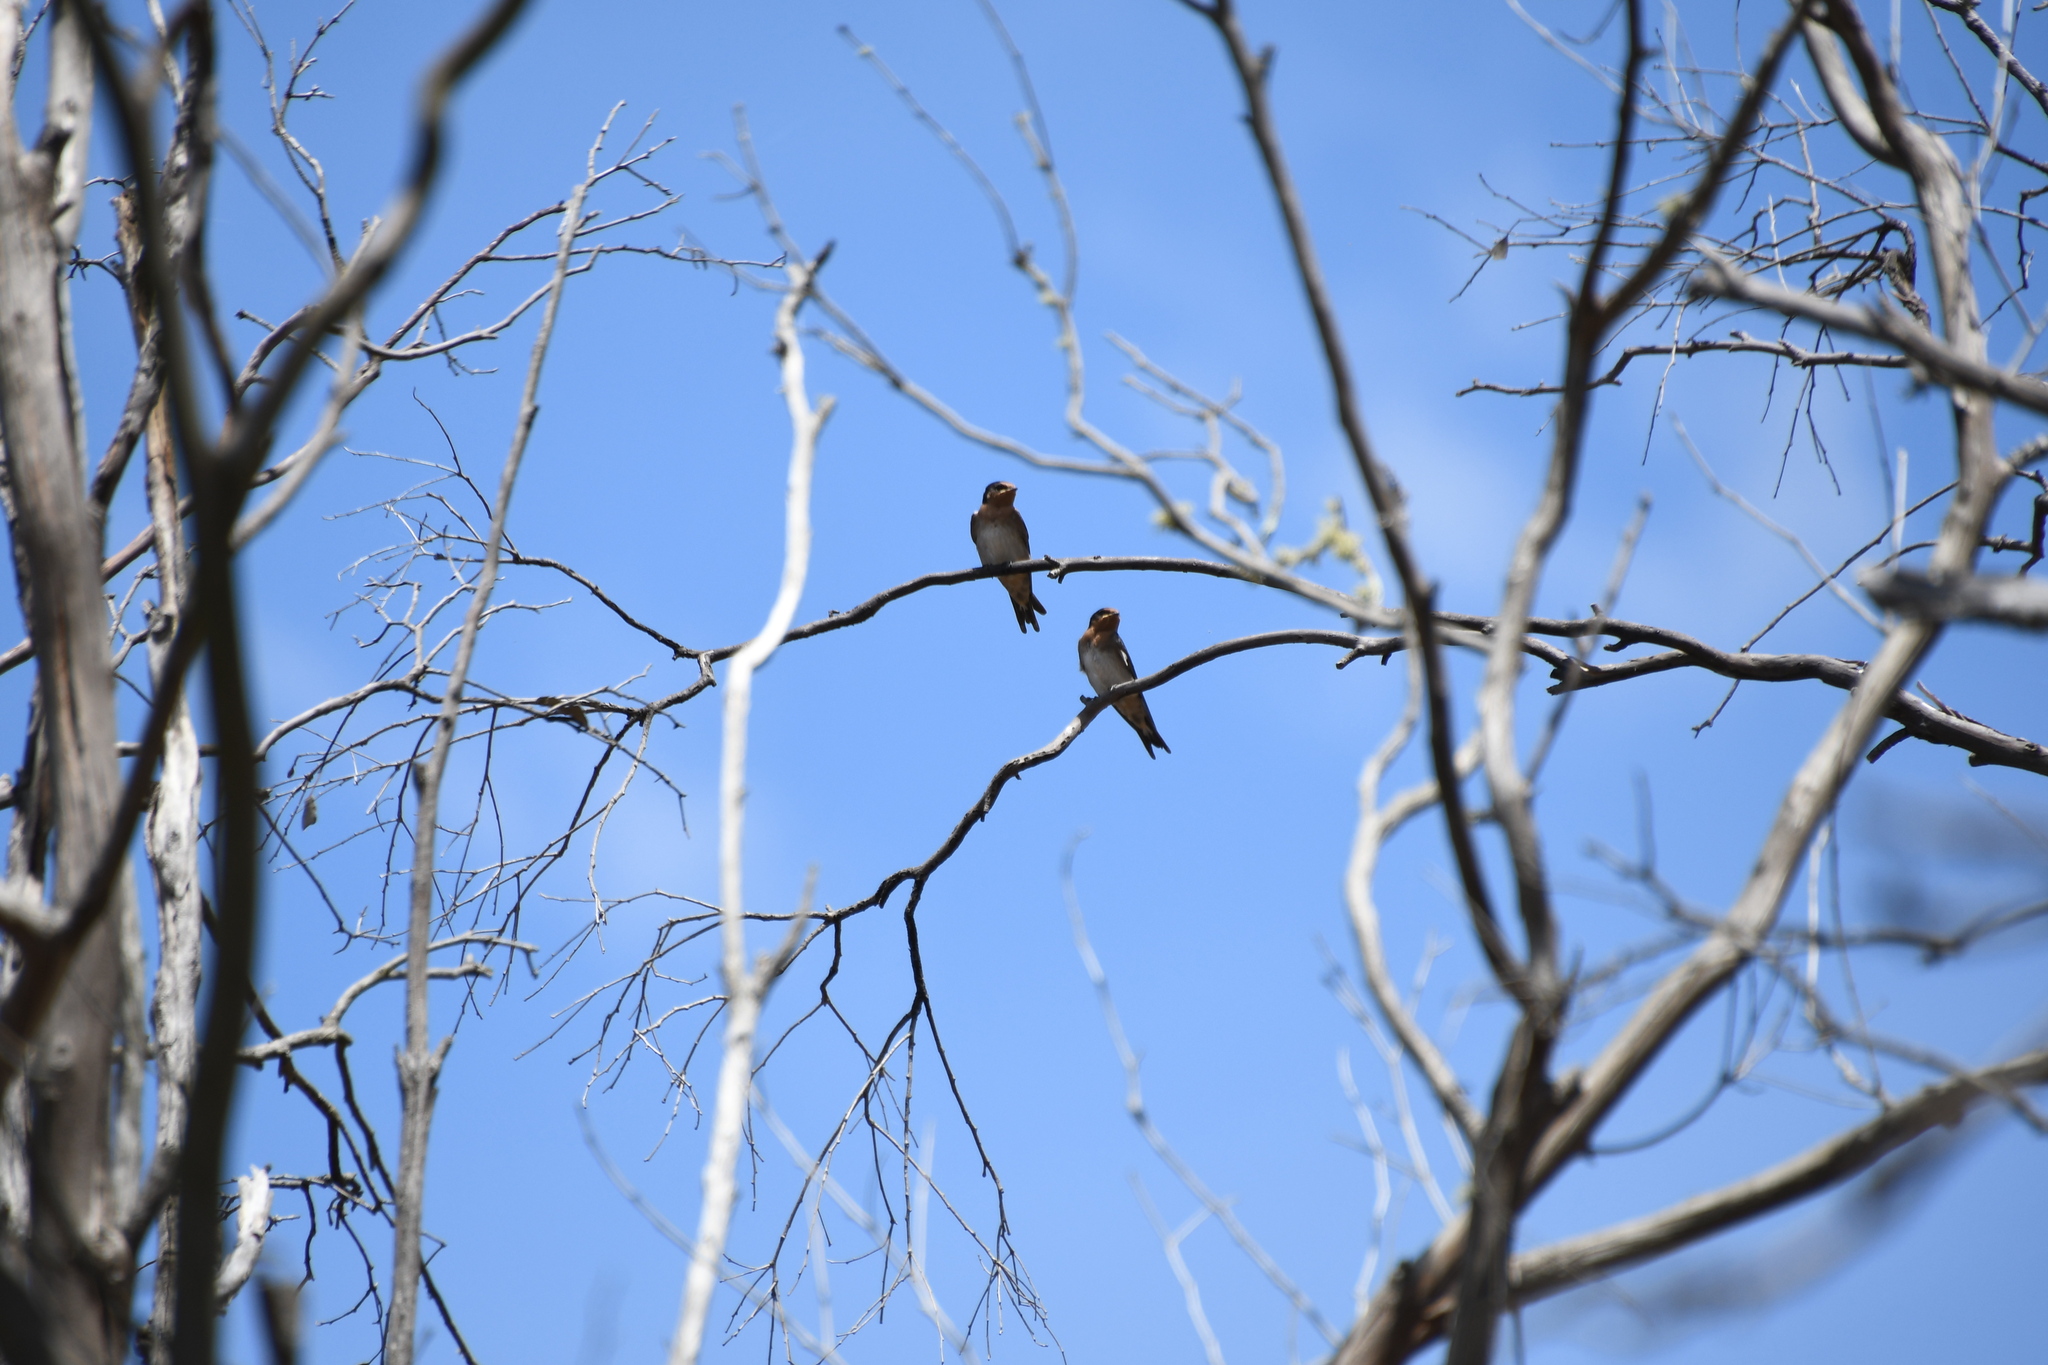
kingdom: Animalia
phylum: Chordata
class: Aves
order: Passeriformes
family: Hirundinidae
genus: Hirundo
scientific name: Hirundo neoxena
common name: Welcome swallow
